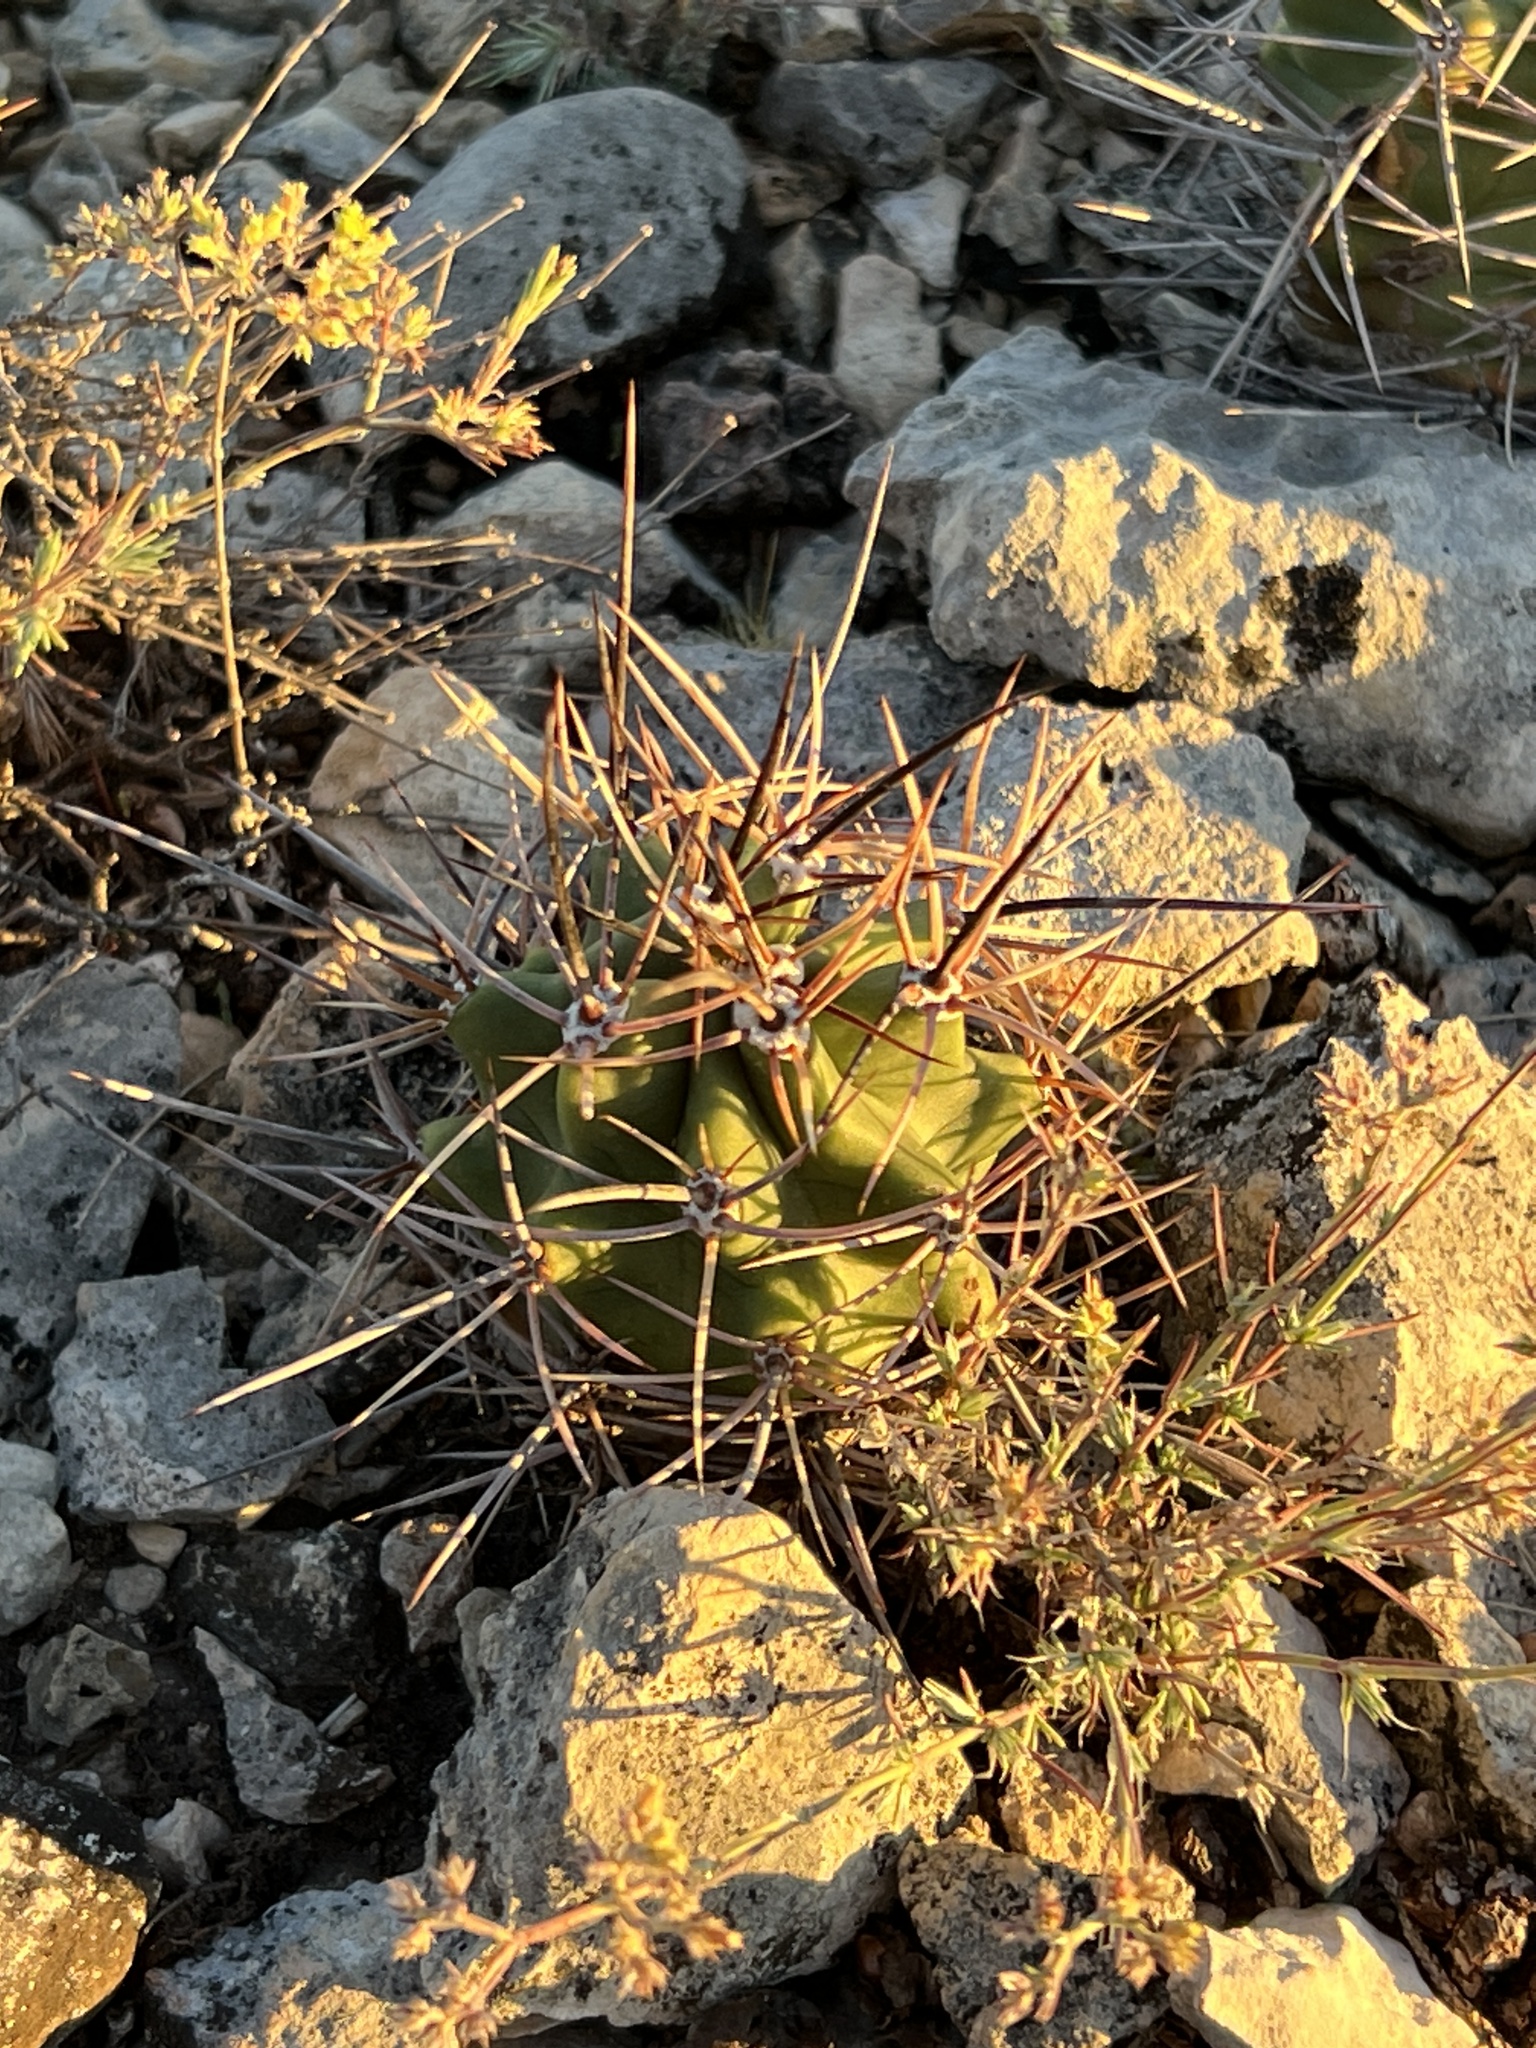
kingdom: Plantae
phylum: Tracheophyta
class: Magnoliopsida
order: Caryophyllales
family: Cactaceae
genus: Echinocereus
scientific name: Echinocereus coccineus
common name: Scarlet hedgehog cactus
